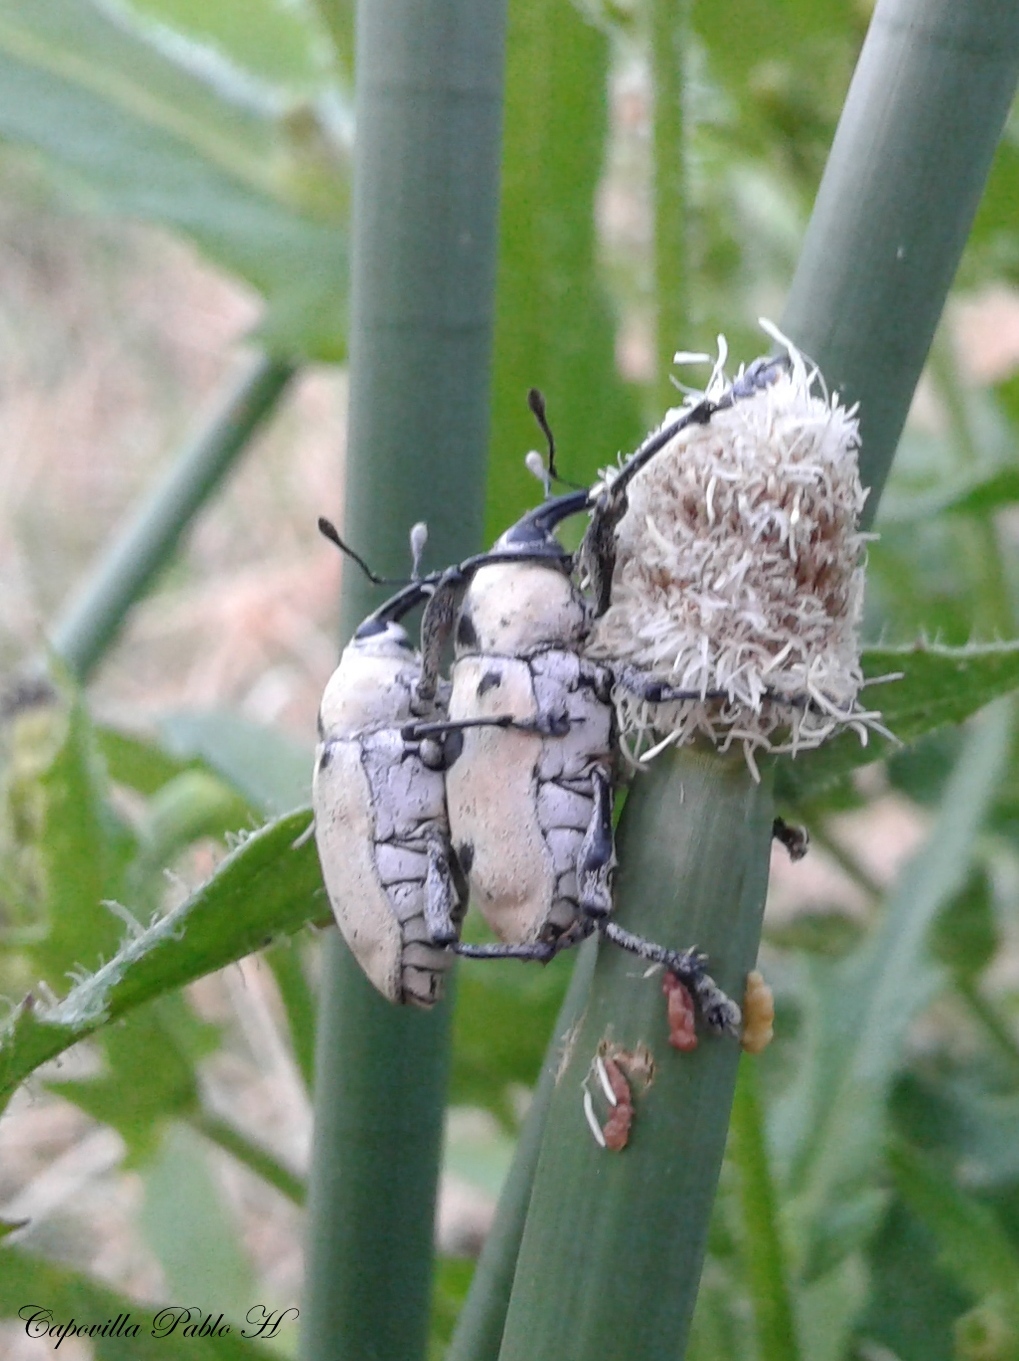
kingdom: Animalia
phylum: Arthropoda
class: Insecta
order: Coleoptera
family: Curculionidae
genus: Cholus
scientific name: Cholus annulatus
